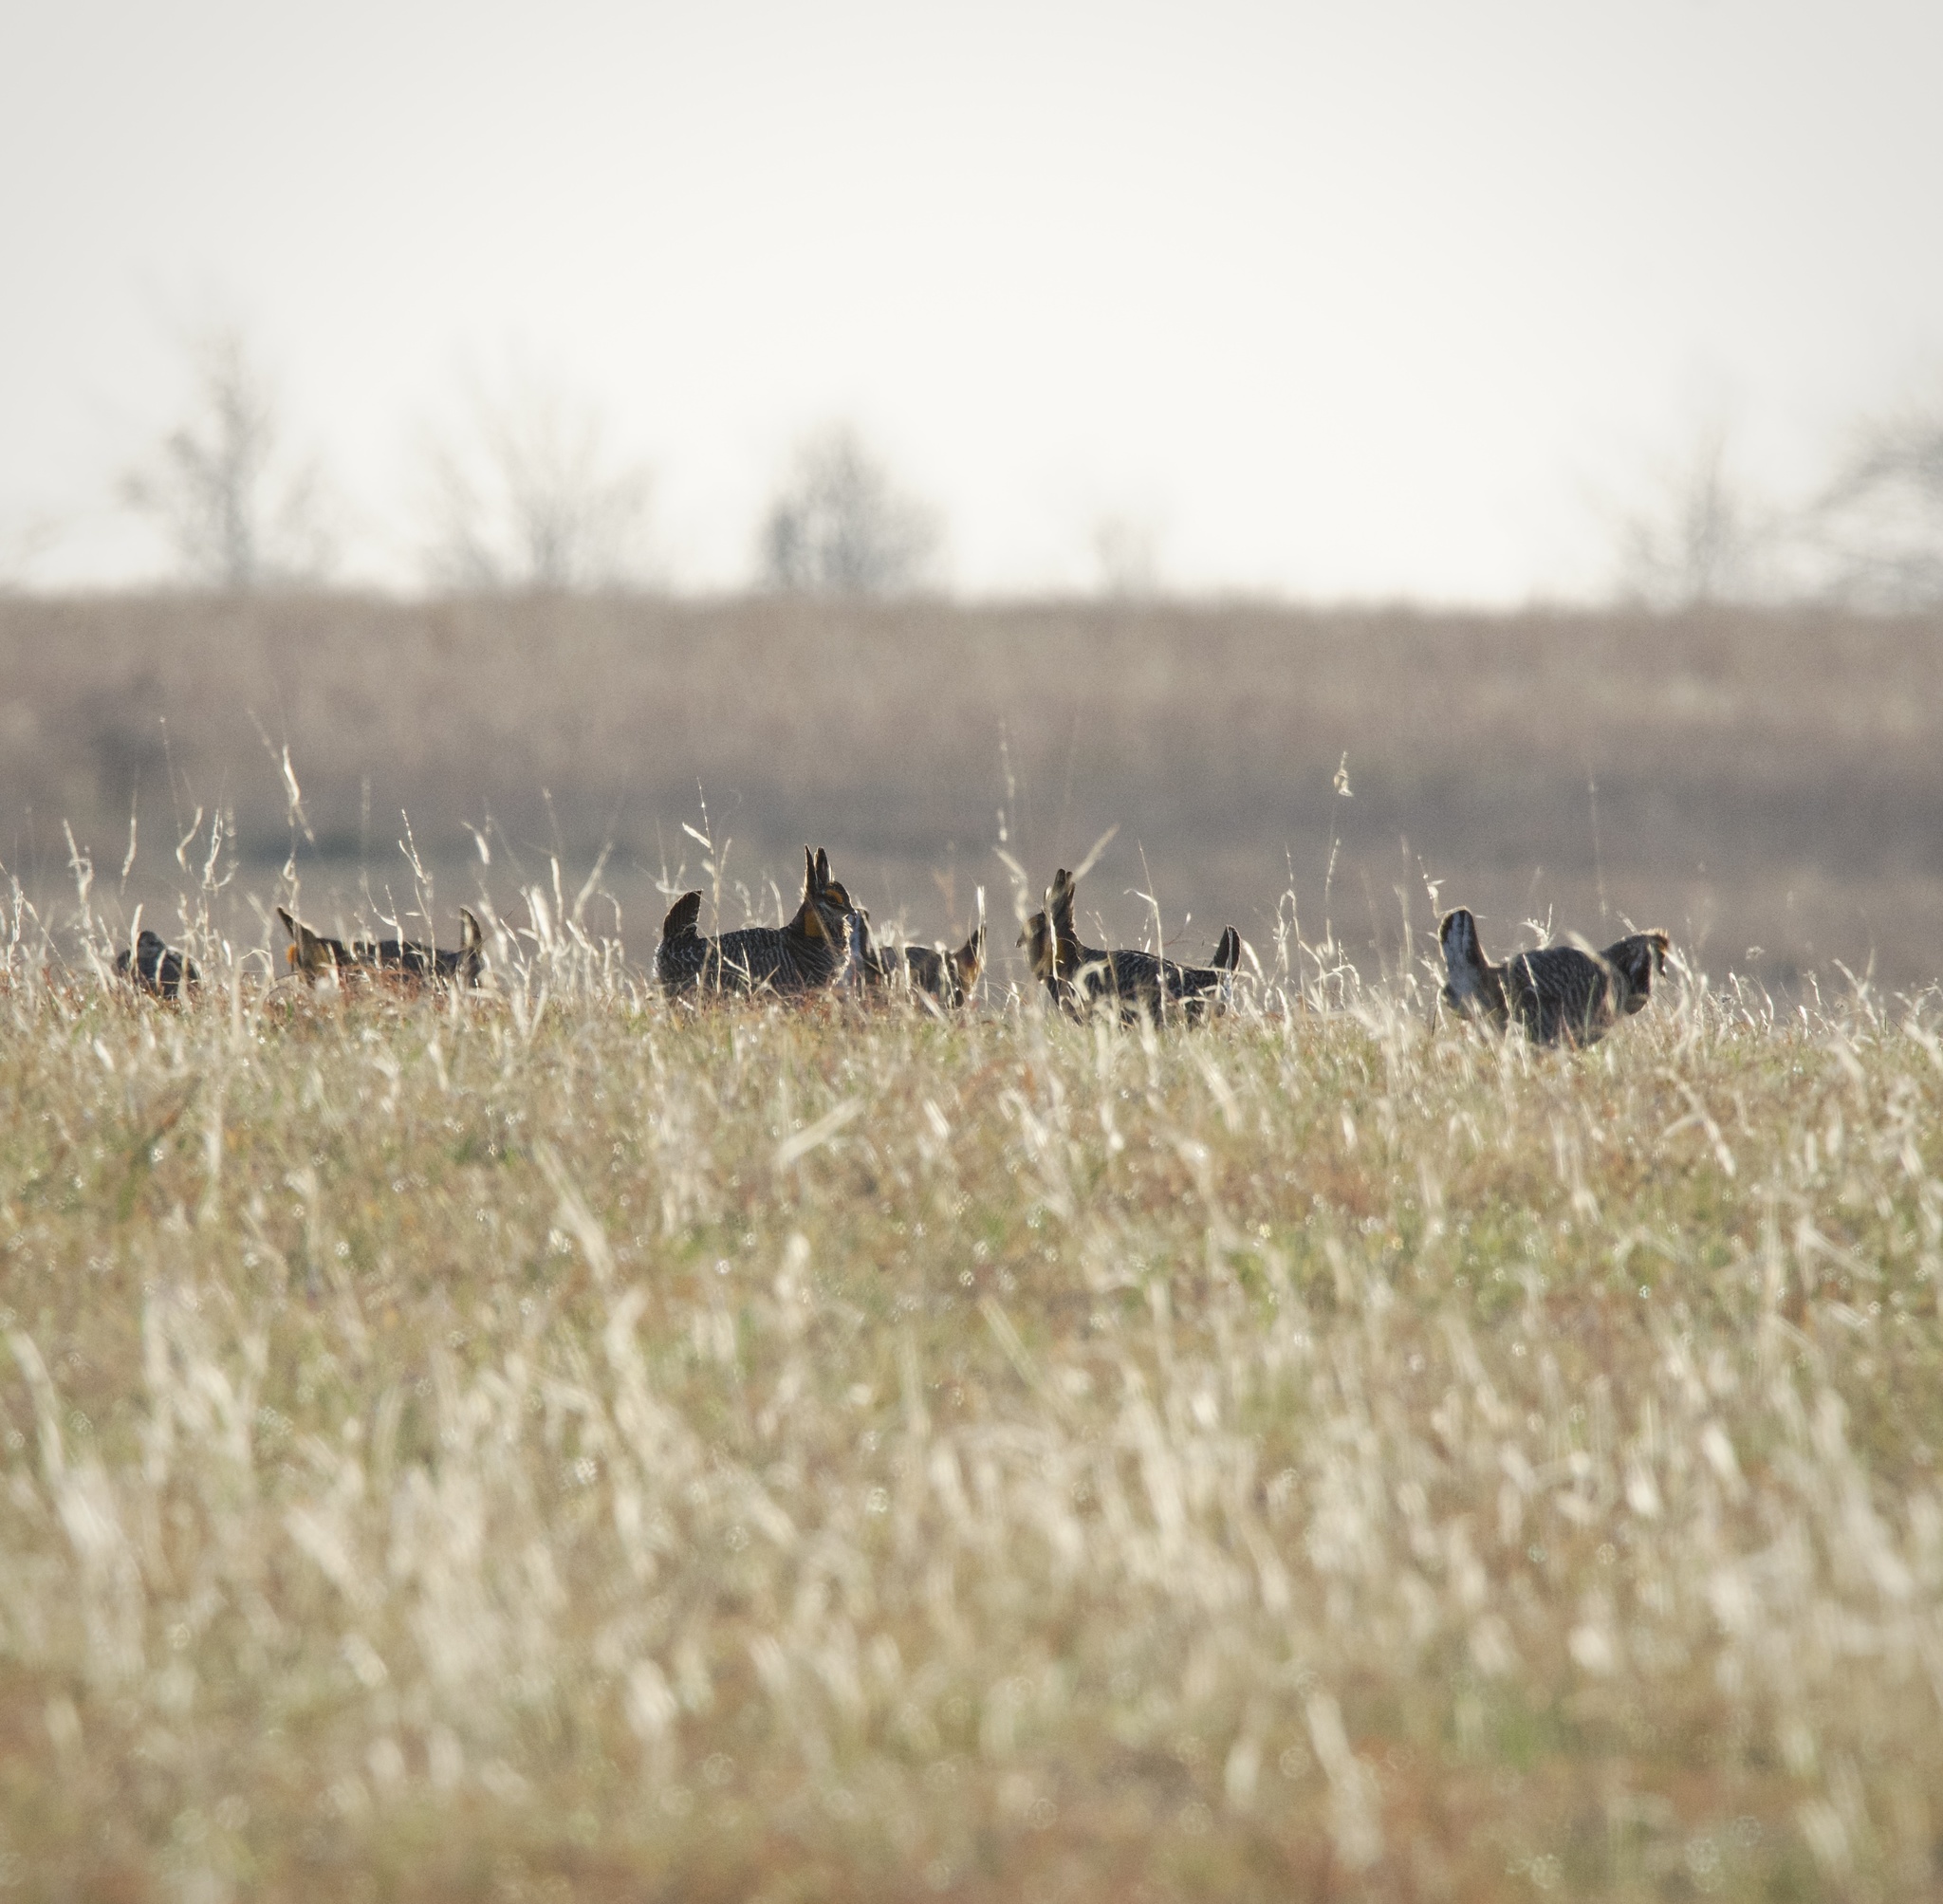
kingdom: Animalia
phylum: Chordata
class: Aves
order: Galliformes
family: Phasianidae
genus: Tympanuchus
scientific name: Tympanuchus cupido
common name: Greater prairie chicken
